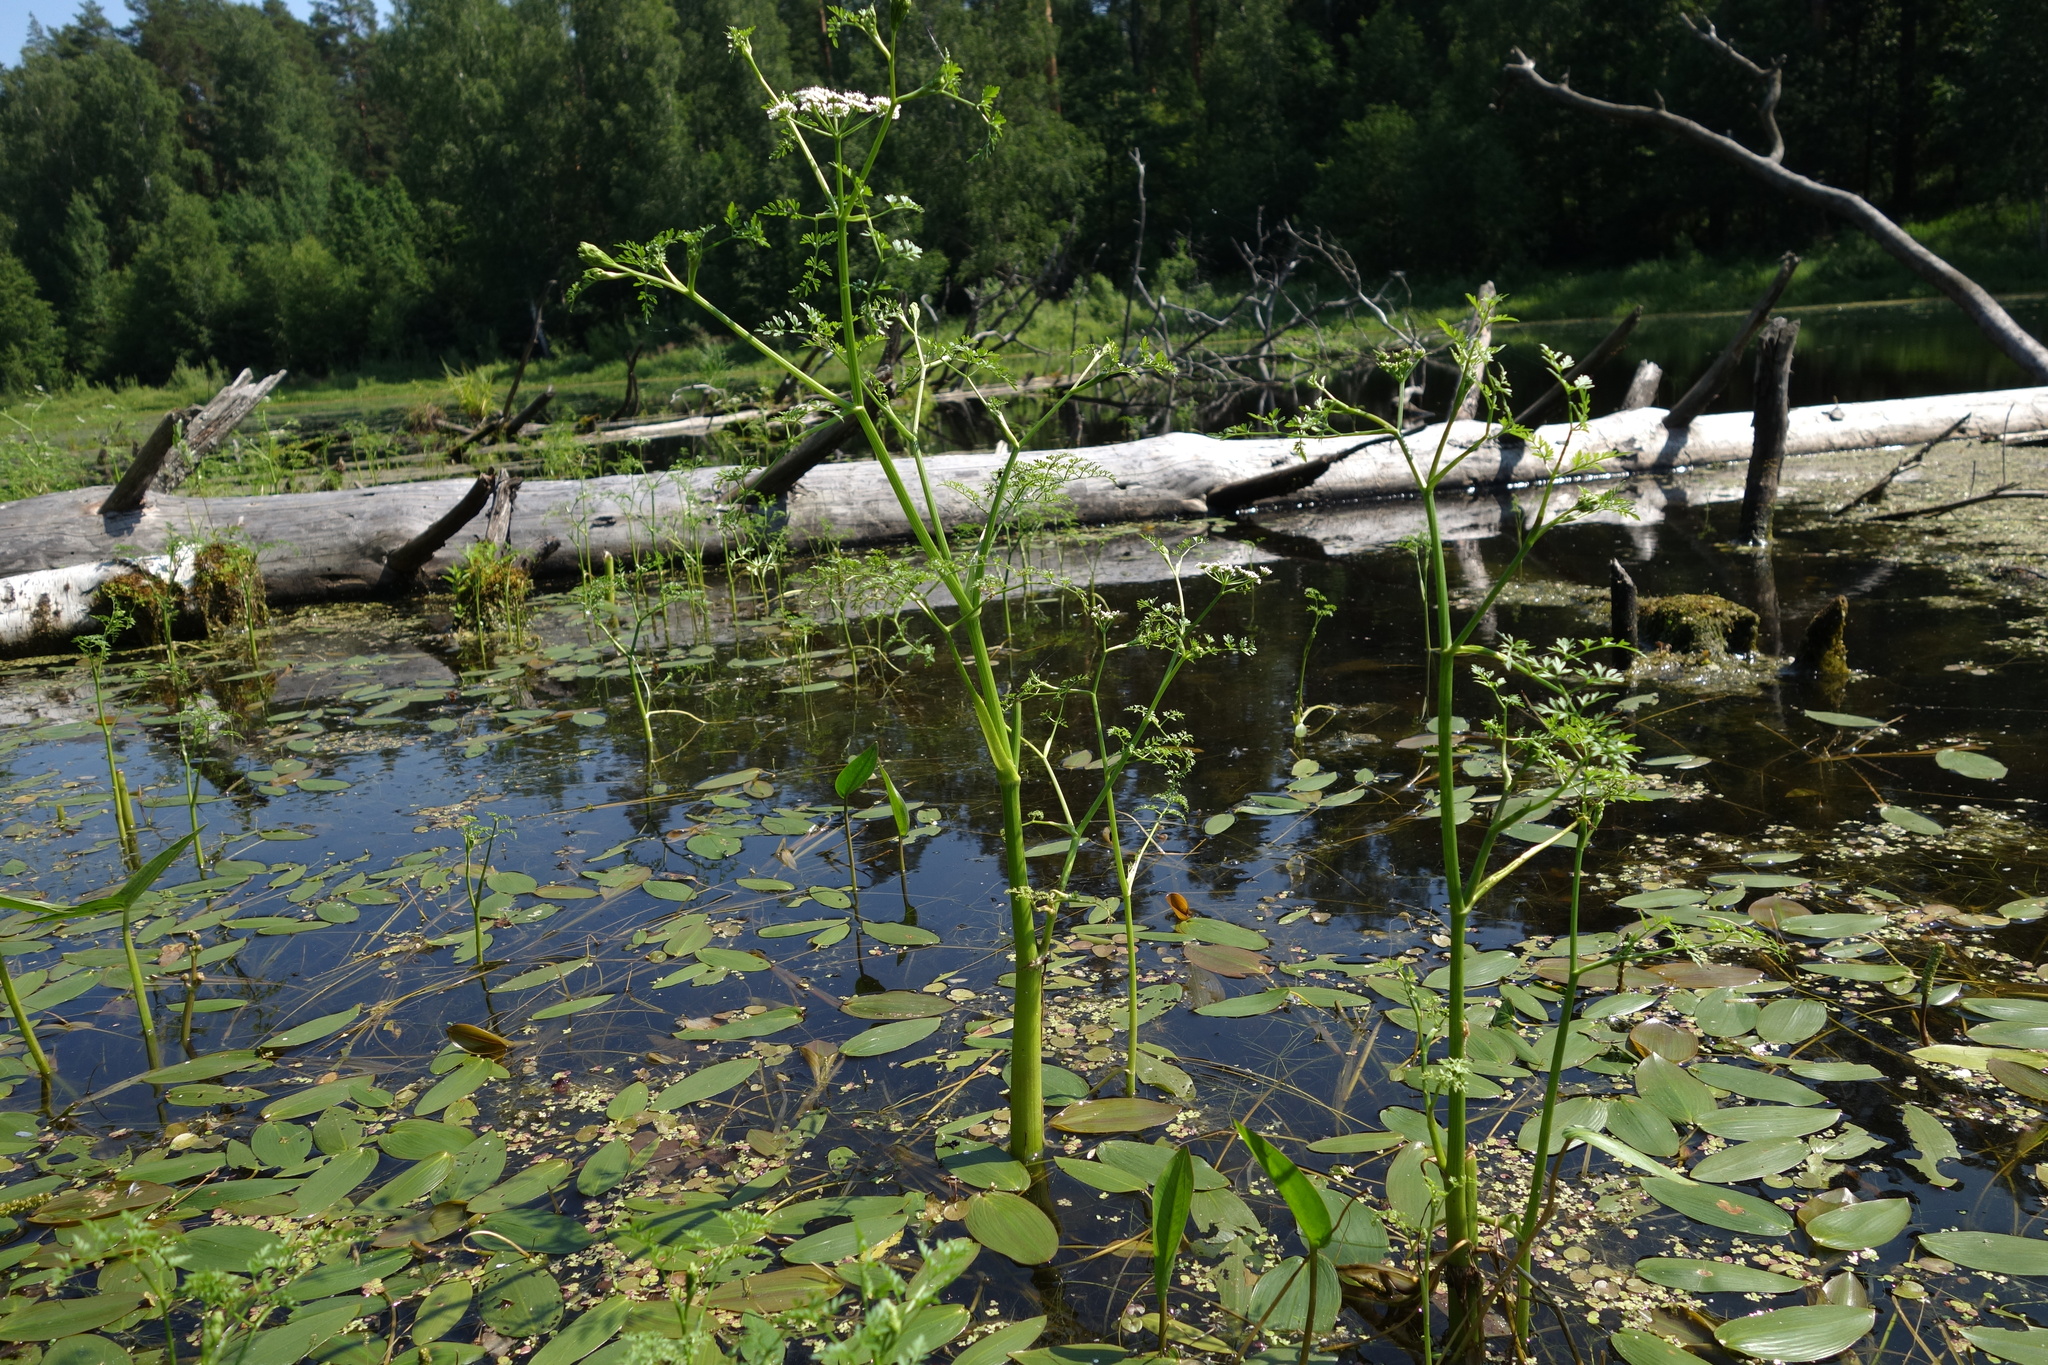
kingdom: Plantae
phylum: Tracheophyta
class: Magnoliopsida
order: Apiales
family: Apiaceae
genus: Oenanthe
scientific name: Oenanthe aquatica
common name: Fine-leaved water-dropwort
